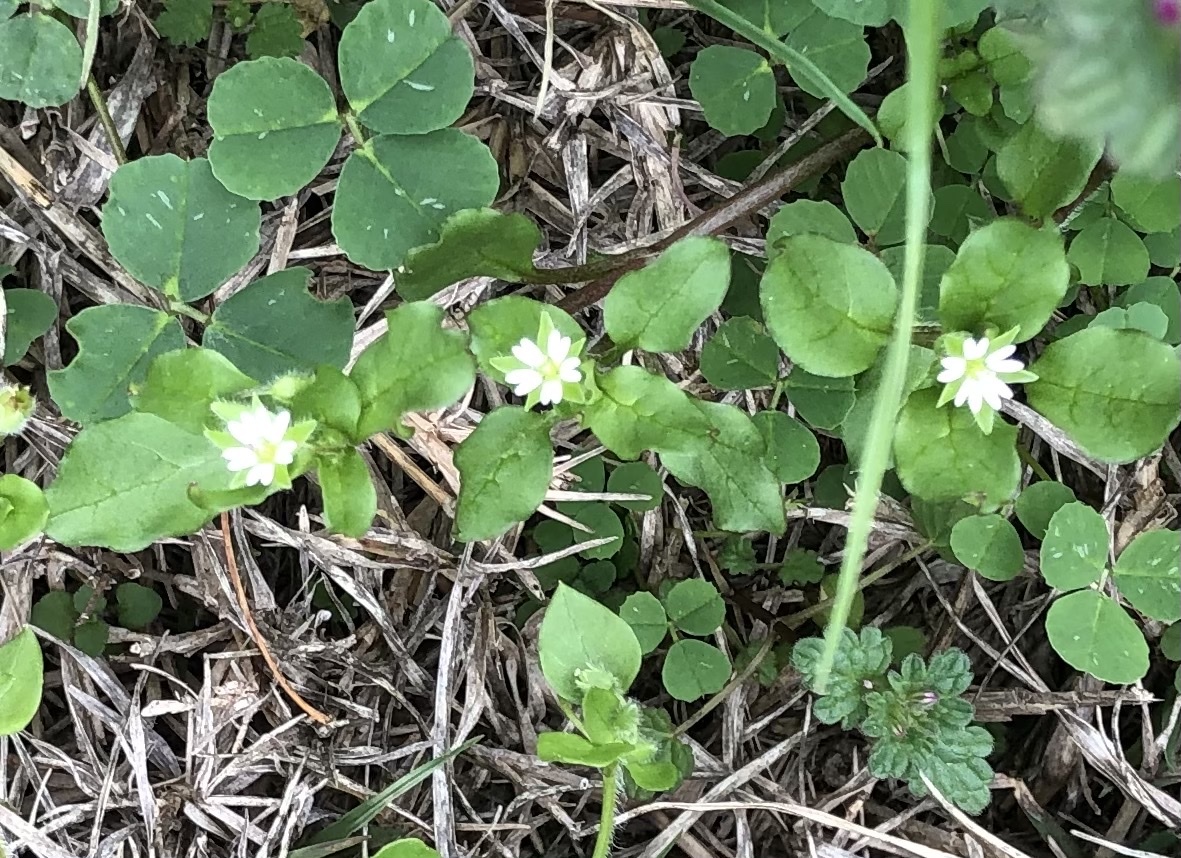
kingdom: Plantae
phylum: Tracheophyta
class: Magnoliopsida
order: Caryophyllales
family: Caryophyllaceae
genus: Stellaria
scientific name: Stellaria media
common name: Common chickweed
